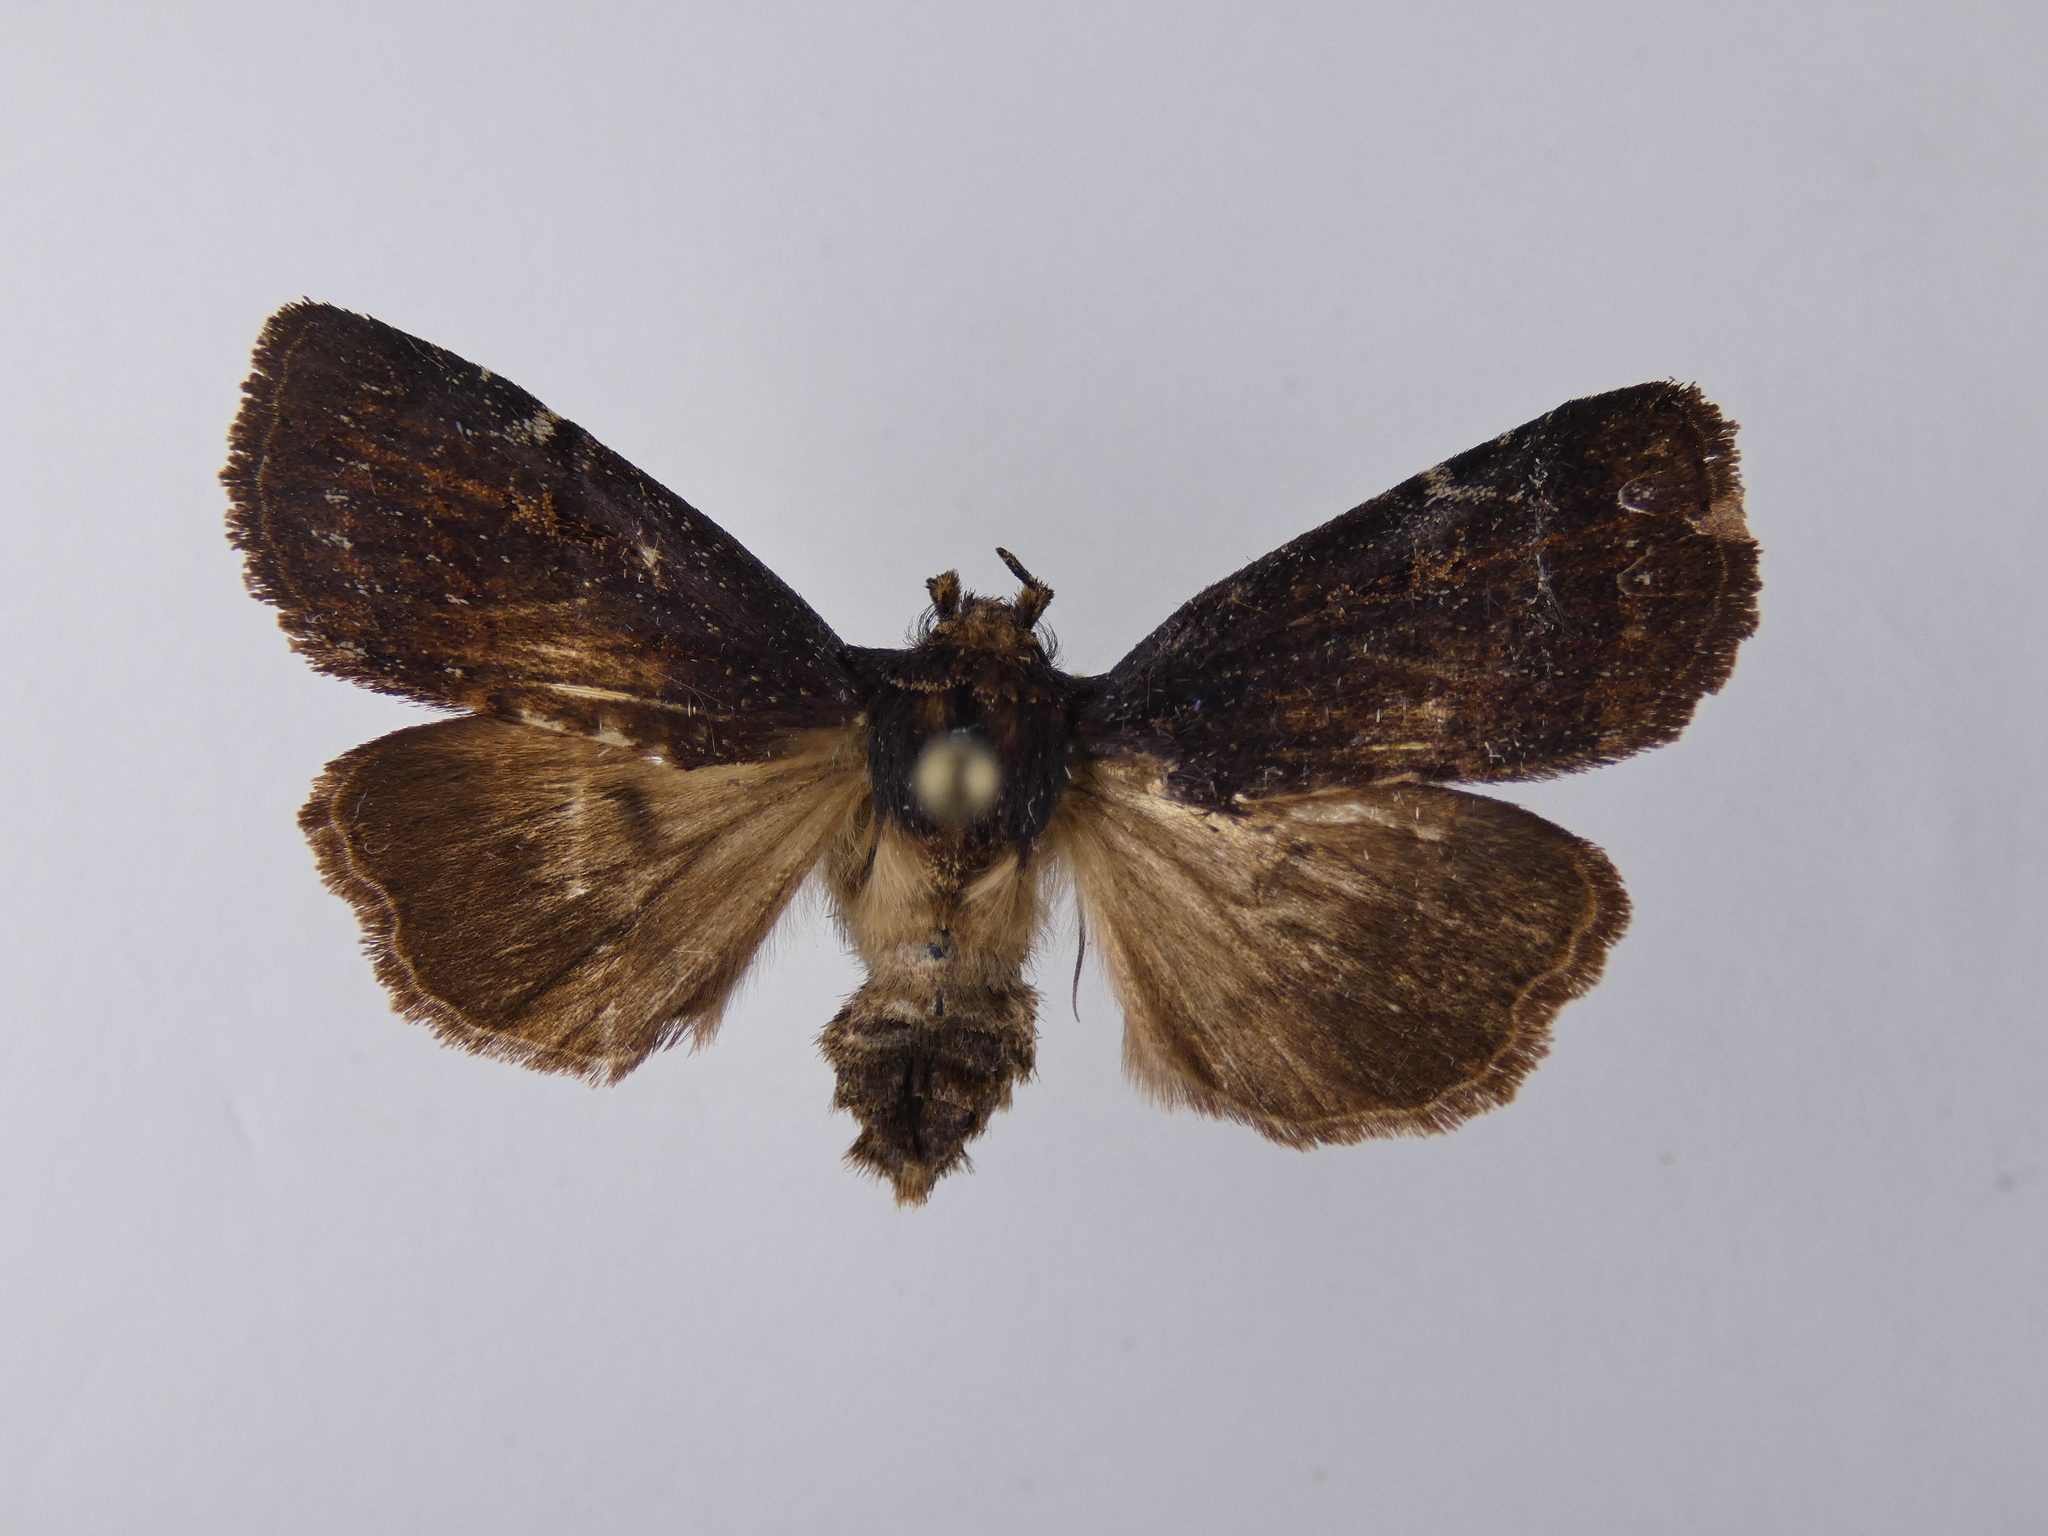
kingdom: Animalia
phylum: Arthropoda
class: Insecta
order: Lepidoptera
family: Noctuidae
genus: Austramathes
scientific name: Austramathes purpurea
